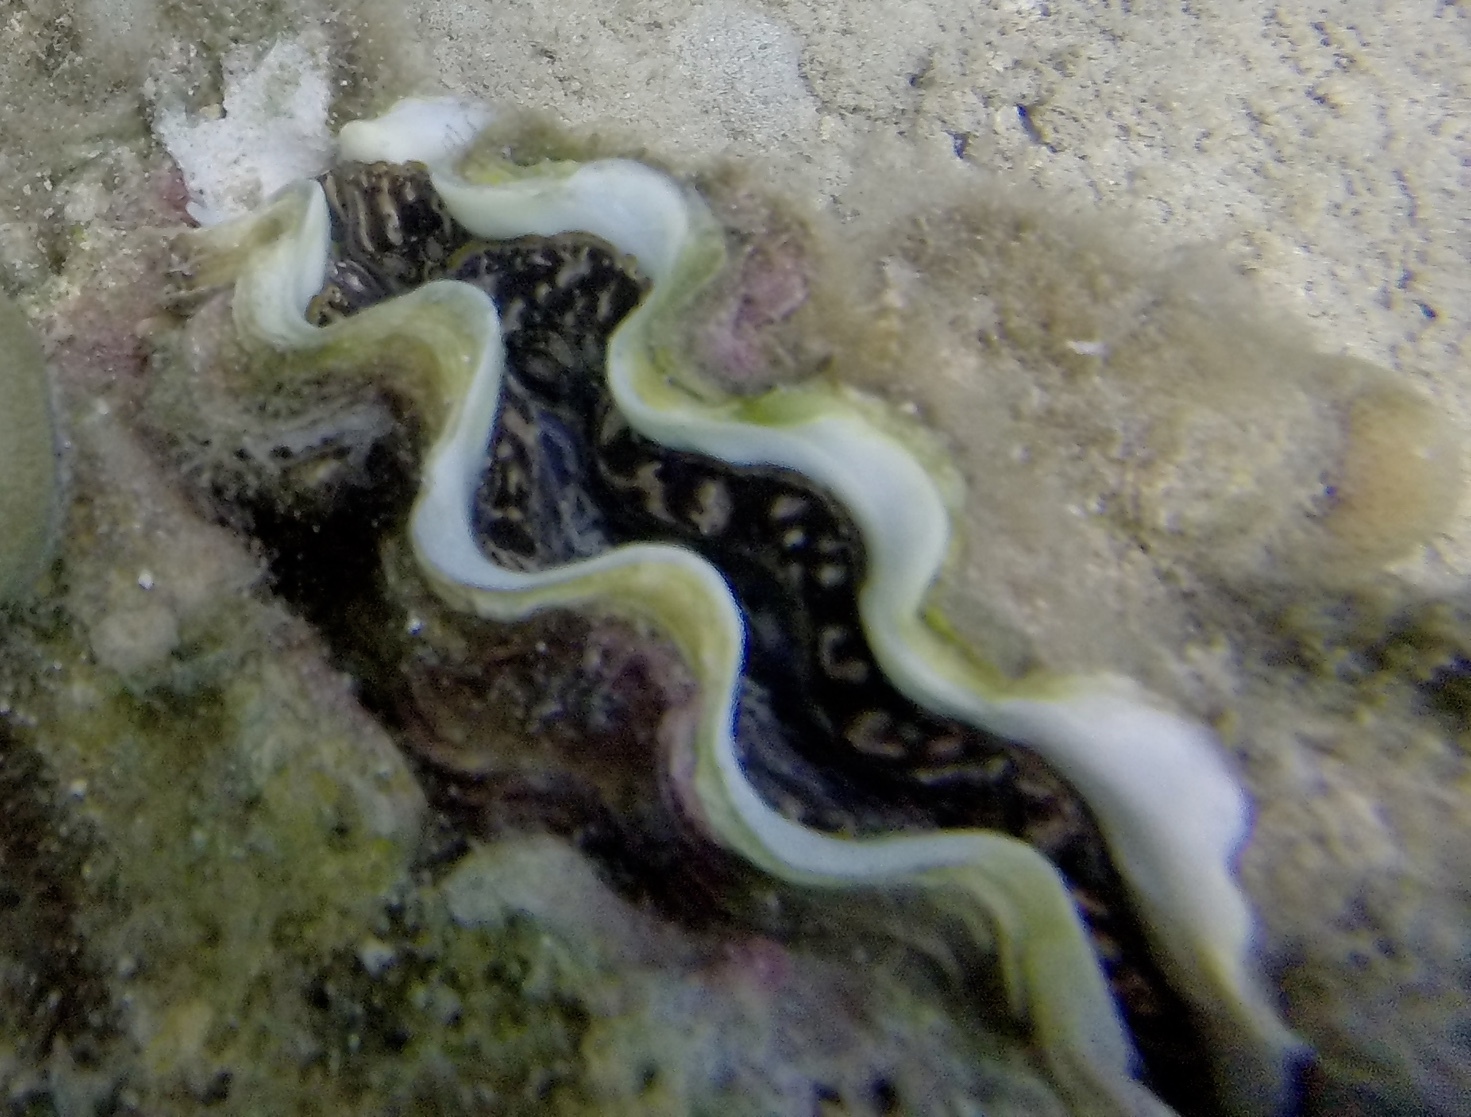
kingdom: Animalia
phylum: Mollusca
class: Bivalvia
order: Cardiida
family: Cardiidae
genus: Tridacna
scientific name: Tridacna maxima
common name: Small giant clam
